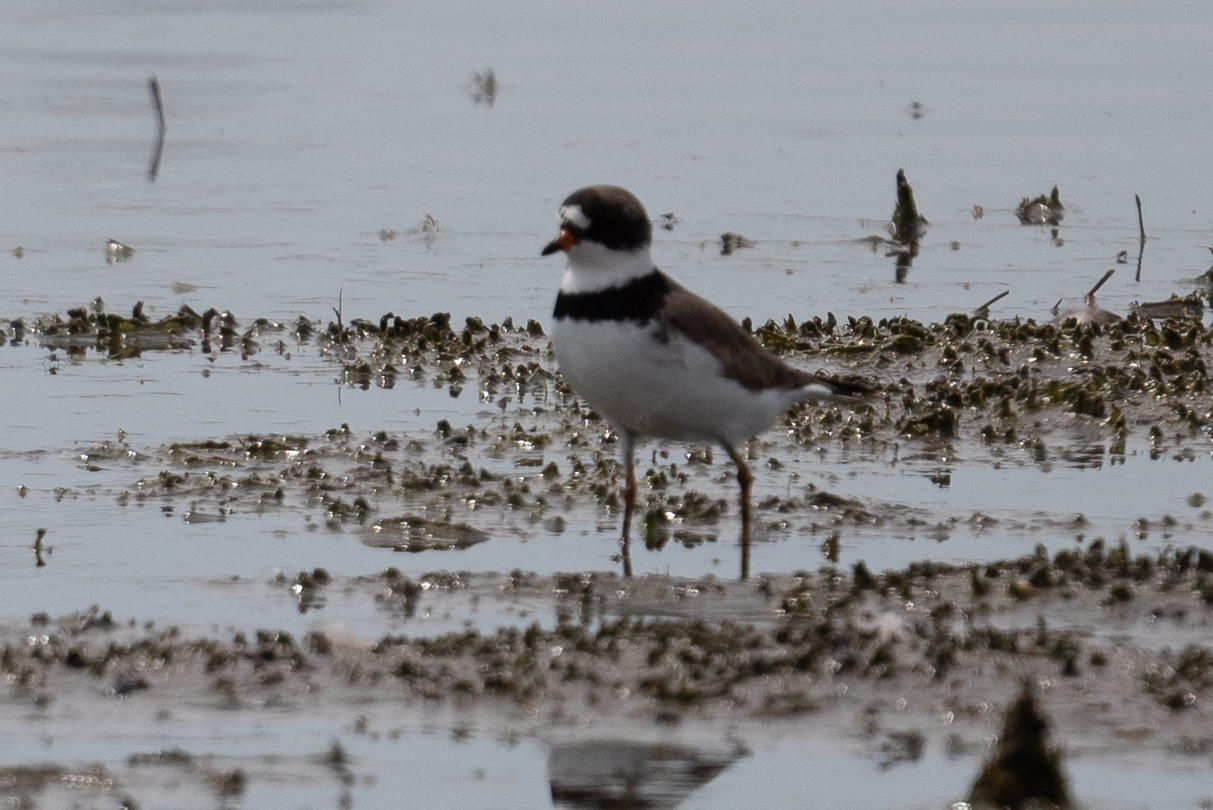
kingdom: Animalia
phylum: Chordata
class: Aves
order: Charadriiformes
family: Charadriidae
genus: Charadrius
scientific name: Charadrius semipalmatus
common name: Semipalmated plover
